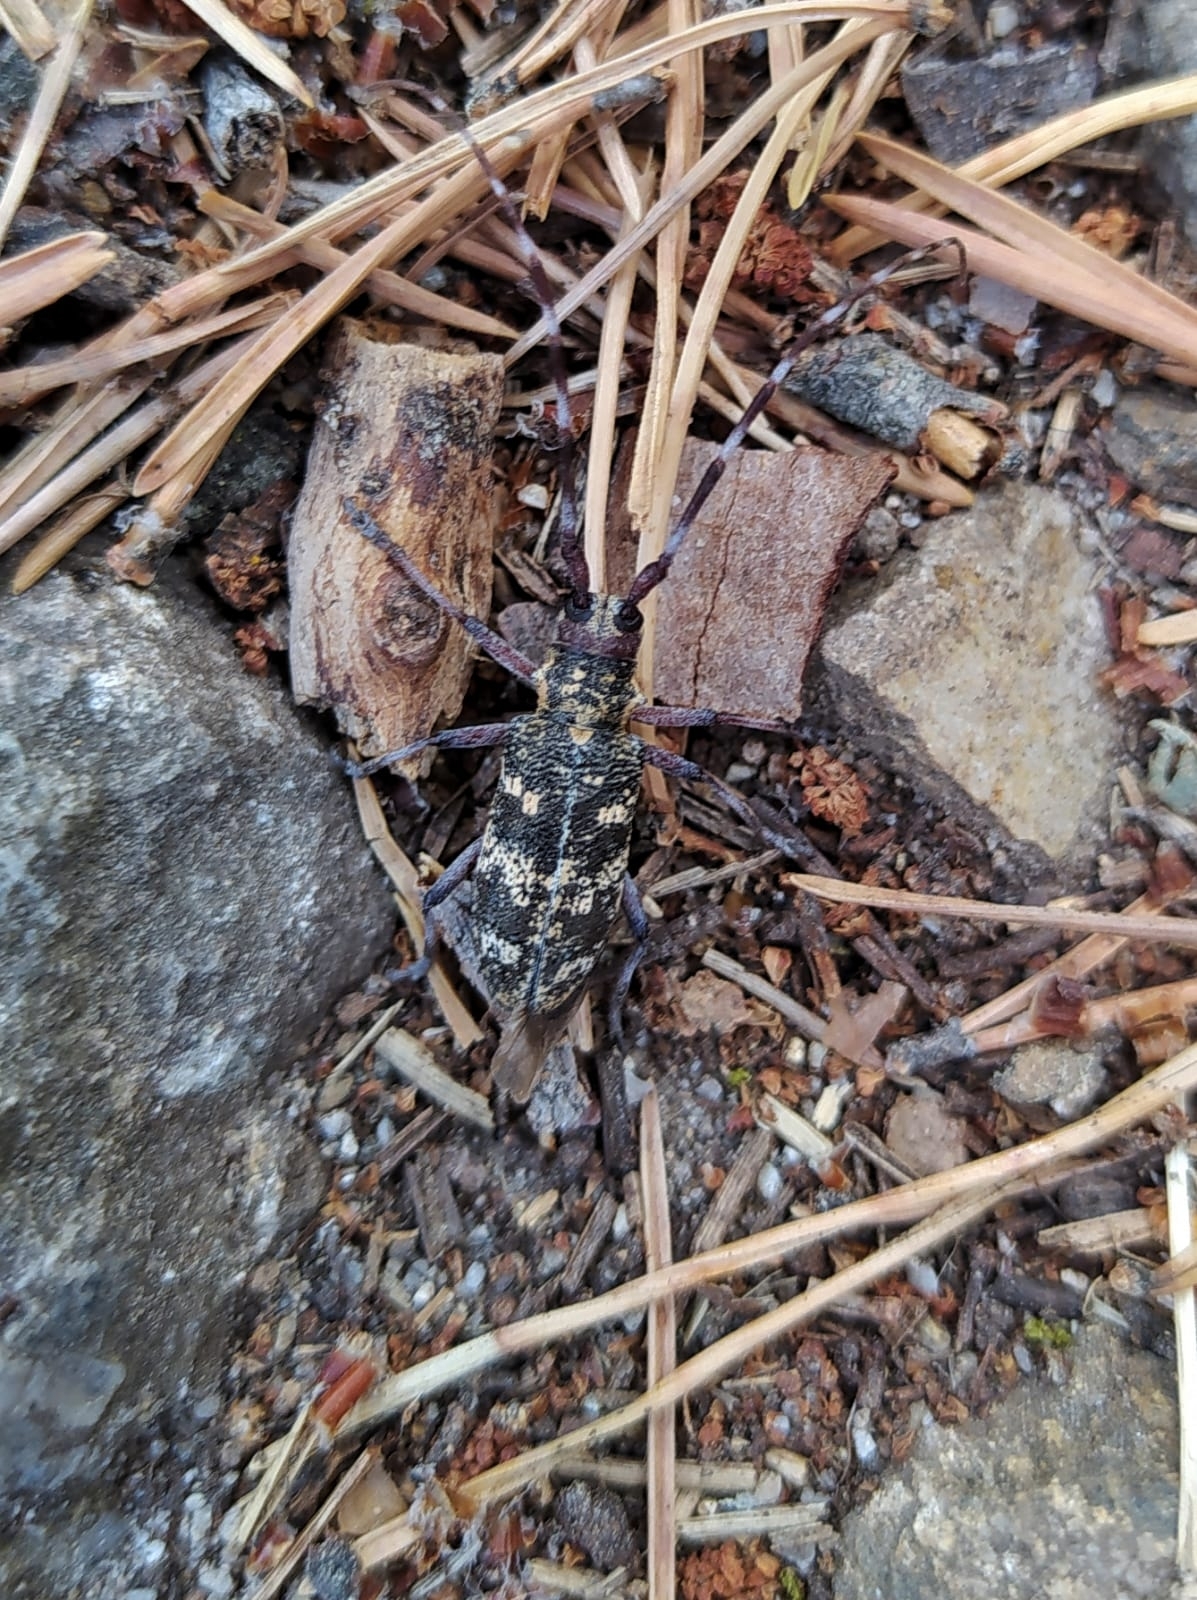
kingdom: Animalia
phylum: Arthropoda
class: Insecta
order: Coleoptera
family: Cerambycidae
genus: Monochamus
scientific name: Monochamus galloprovincialis
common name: Pine sawyer
